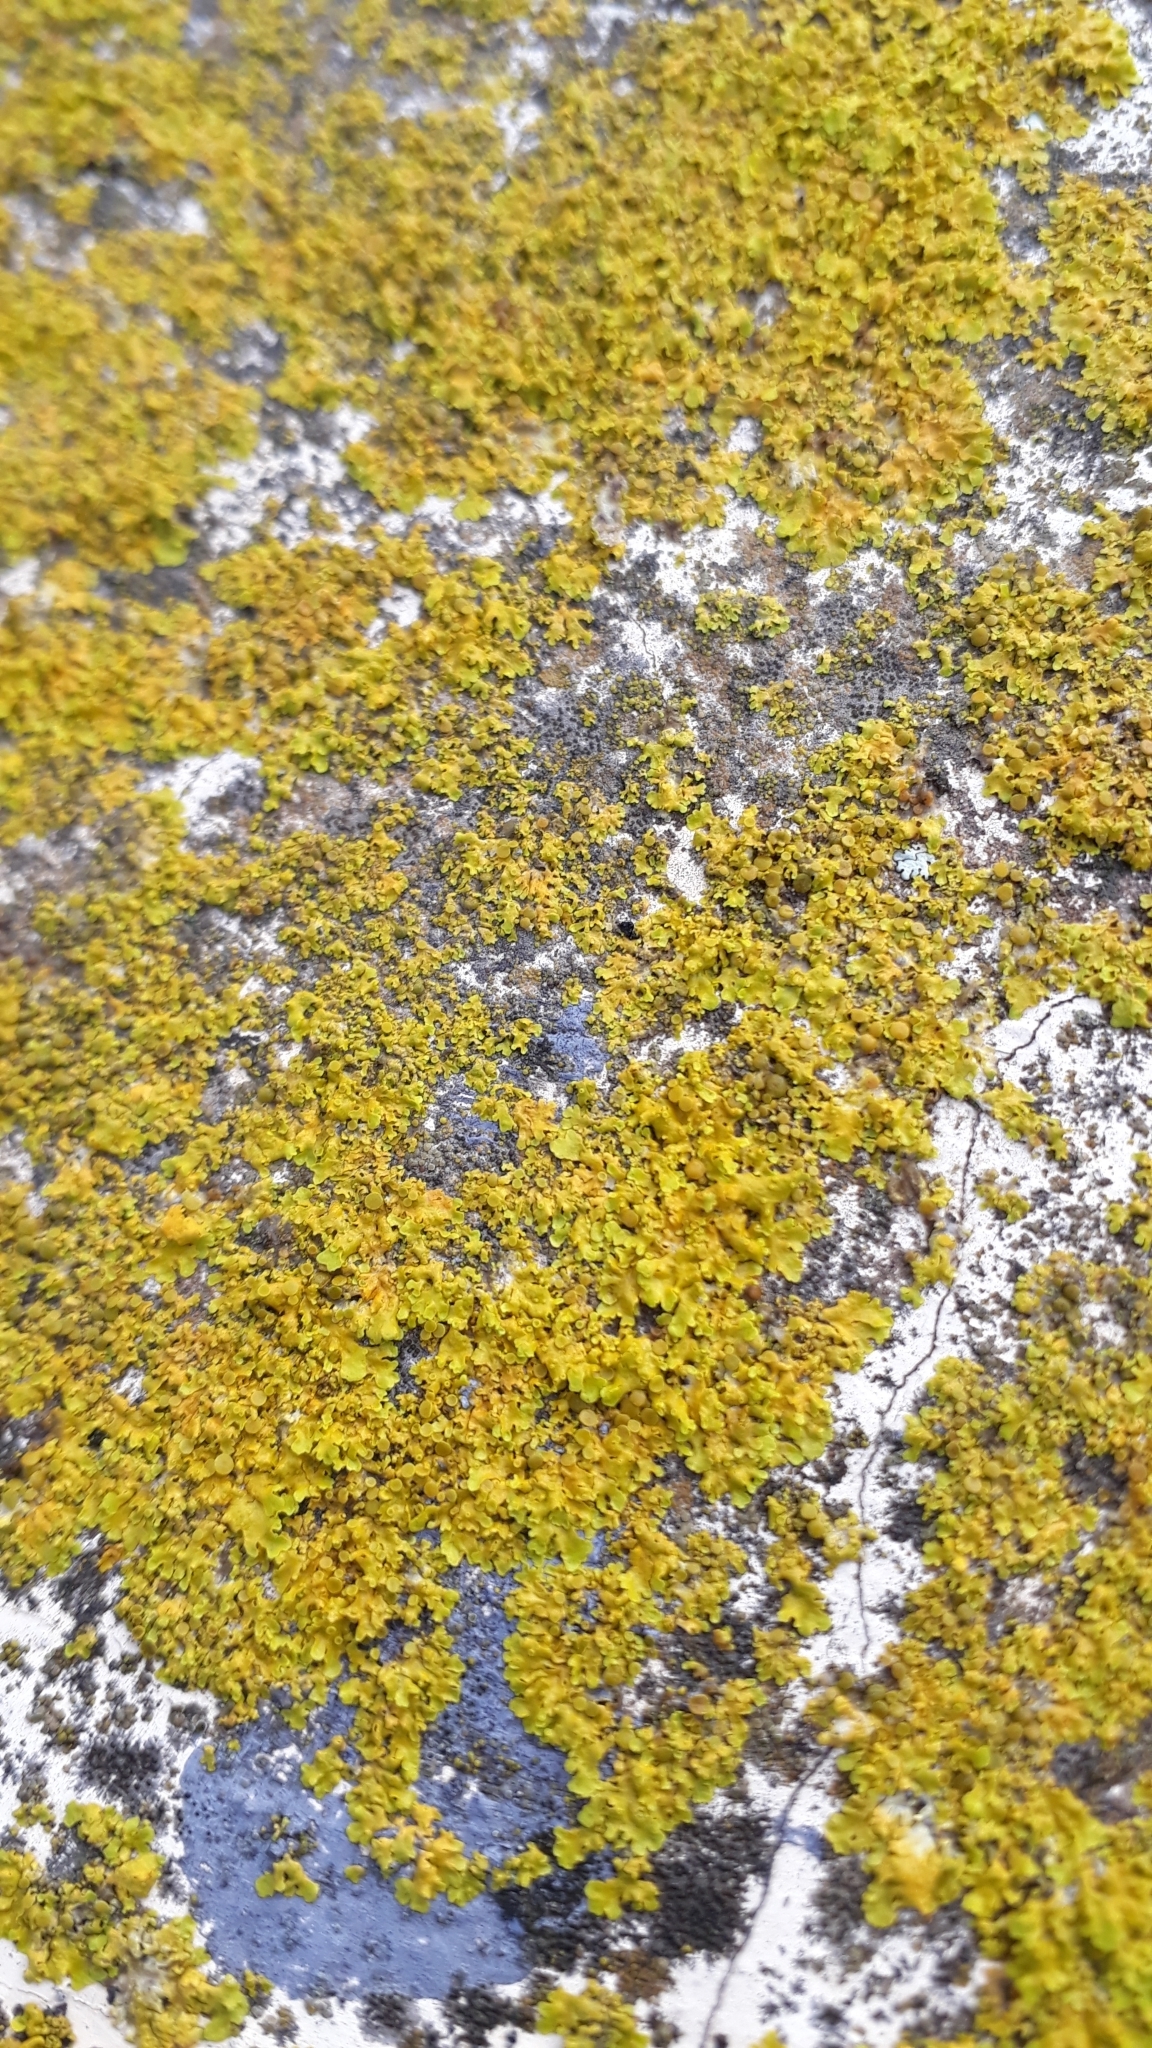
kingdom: Fungi
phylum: Ascomycota
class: Lecanoromycetes
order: Teloschistales
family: Teloschistaceae
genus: Xanthoria
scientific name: Xanthoria parietina
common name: Common orange lichen
